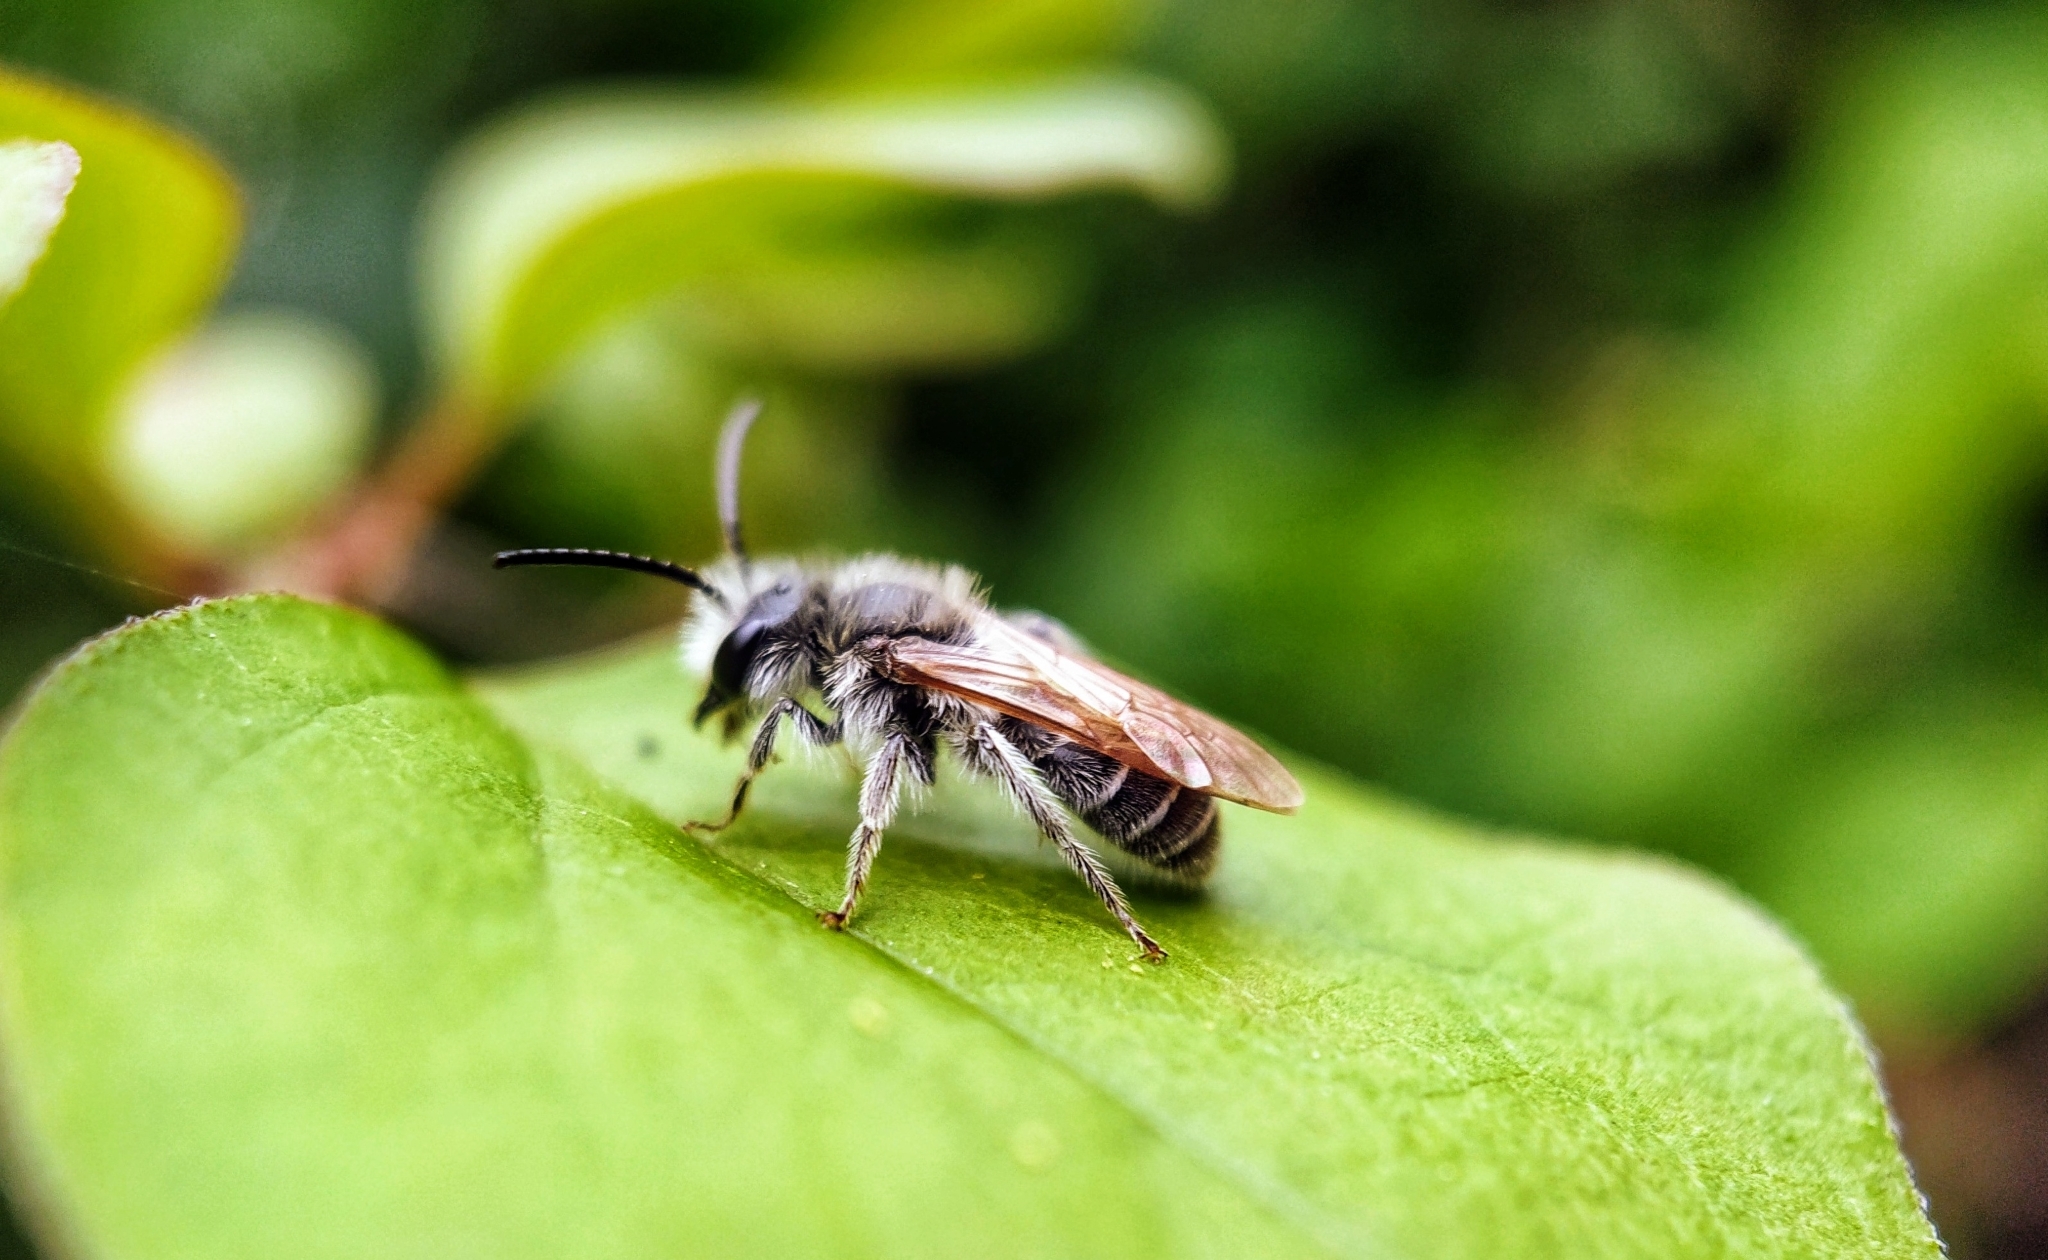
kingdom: Animalia
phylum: Arthropoda
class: Insecta
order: Hymenoptera
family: Andrenidae
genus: Andrena
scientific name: Andrena wilkella
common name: Wilke's mining bee
